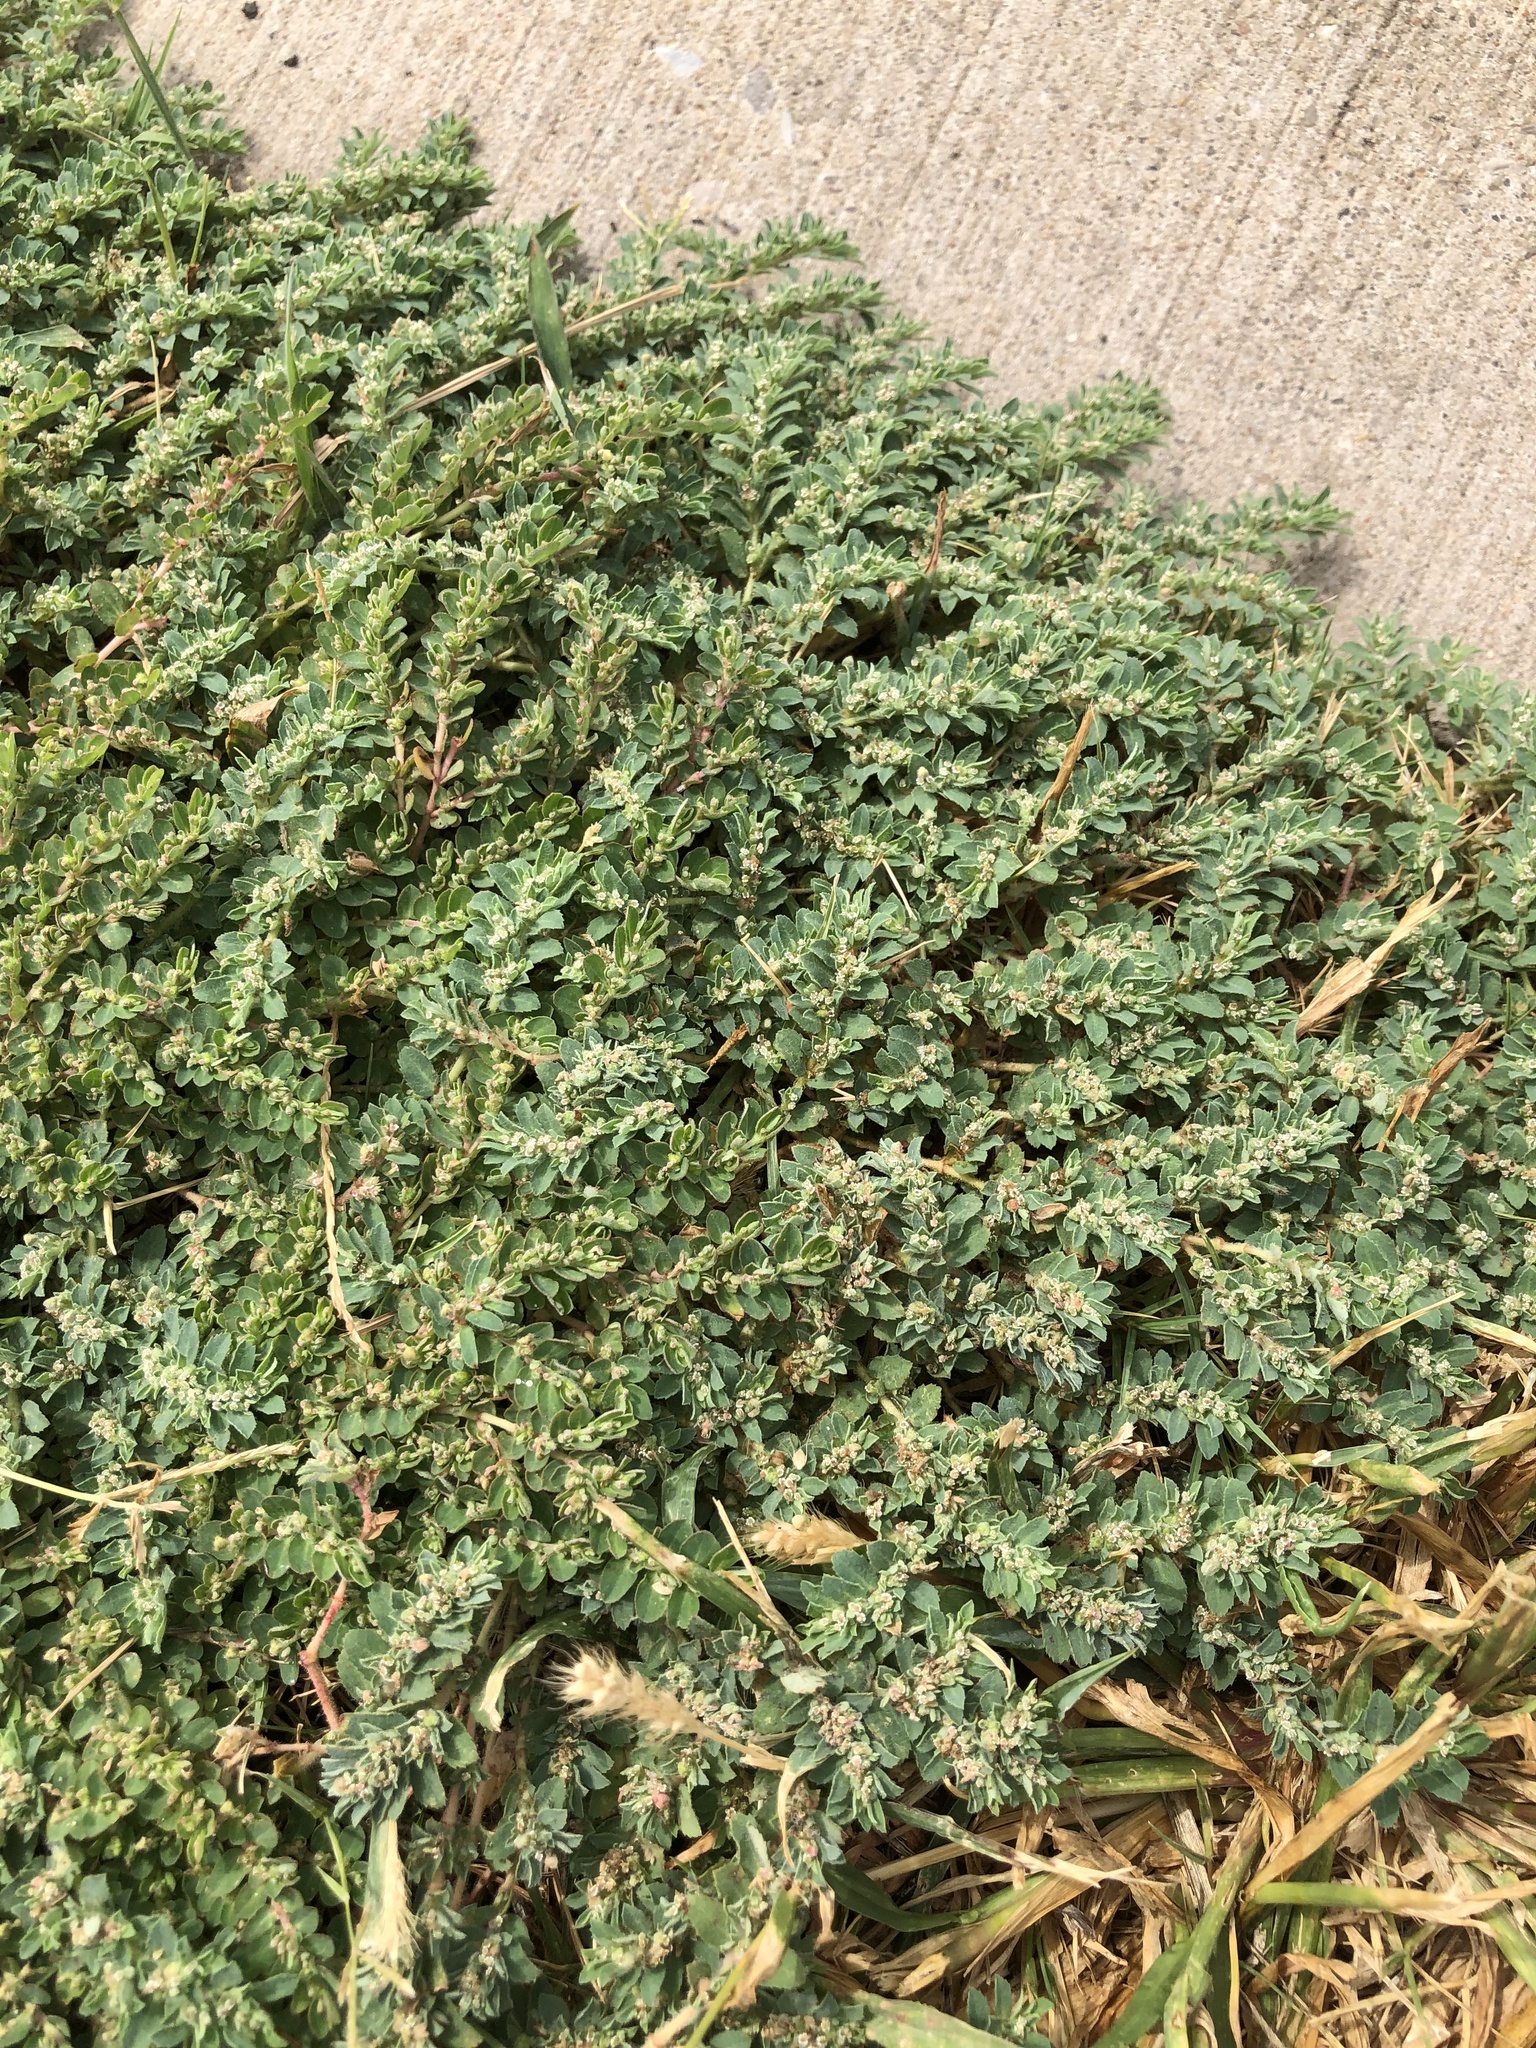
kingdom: Plantae
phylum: Tracheophyta
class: Magnoliopsida
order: Malpighiales
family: Euphorbiaceae
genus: Euphorbia
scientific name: Euphorbia stictospora
